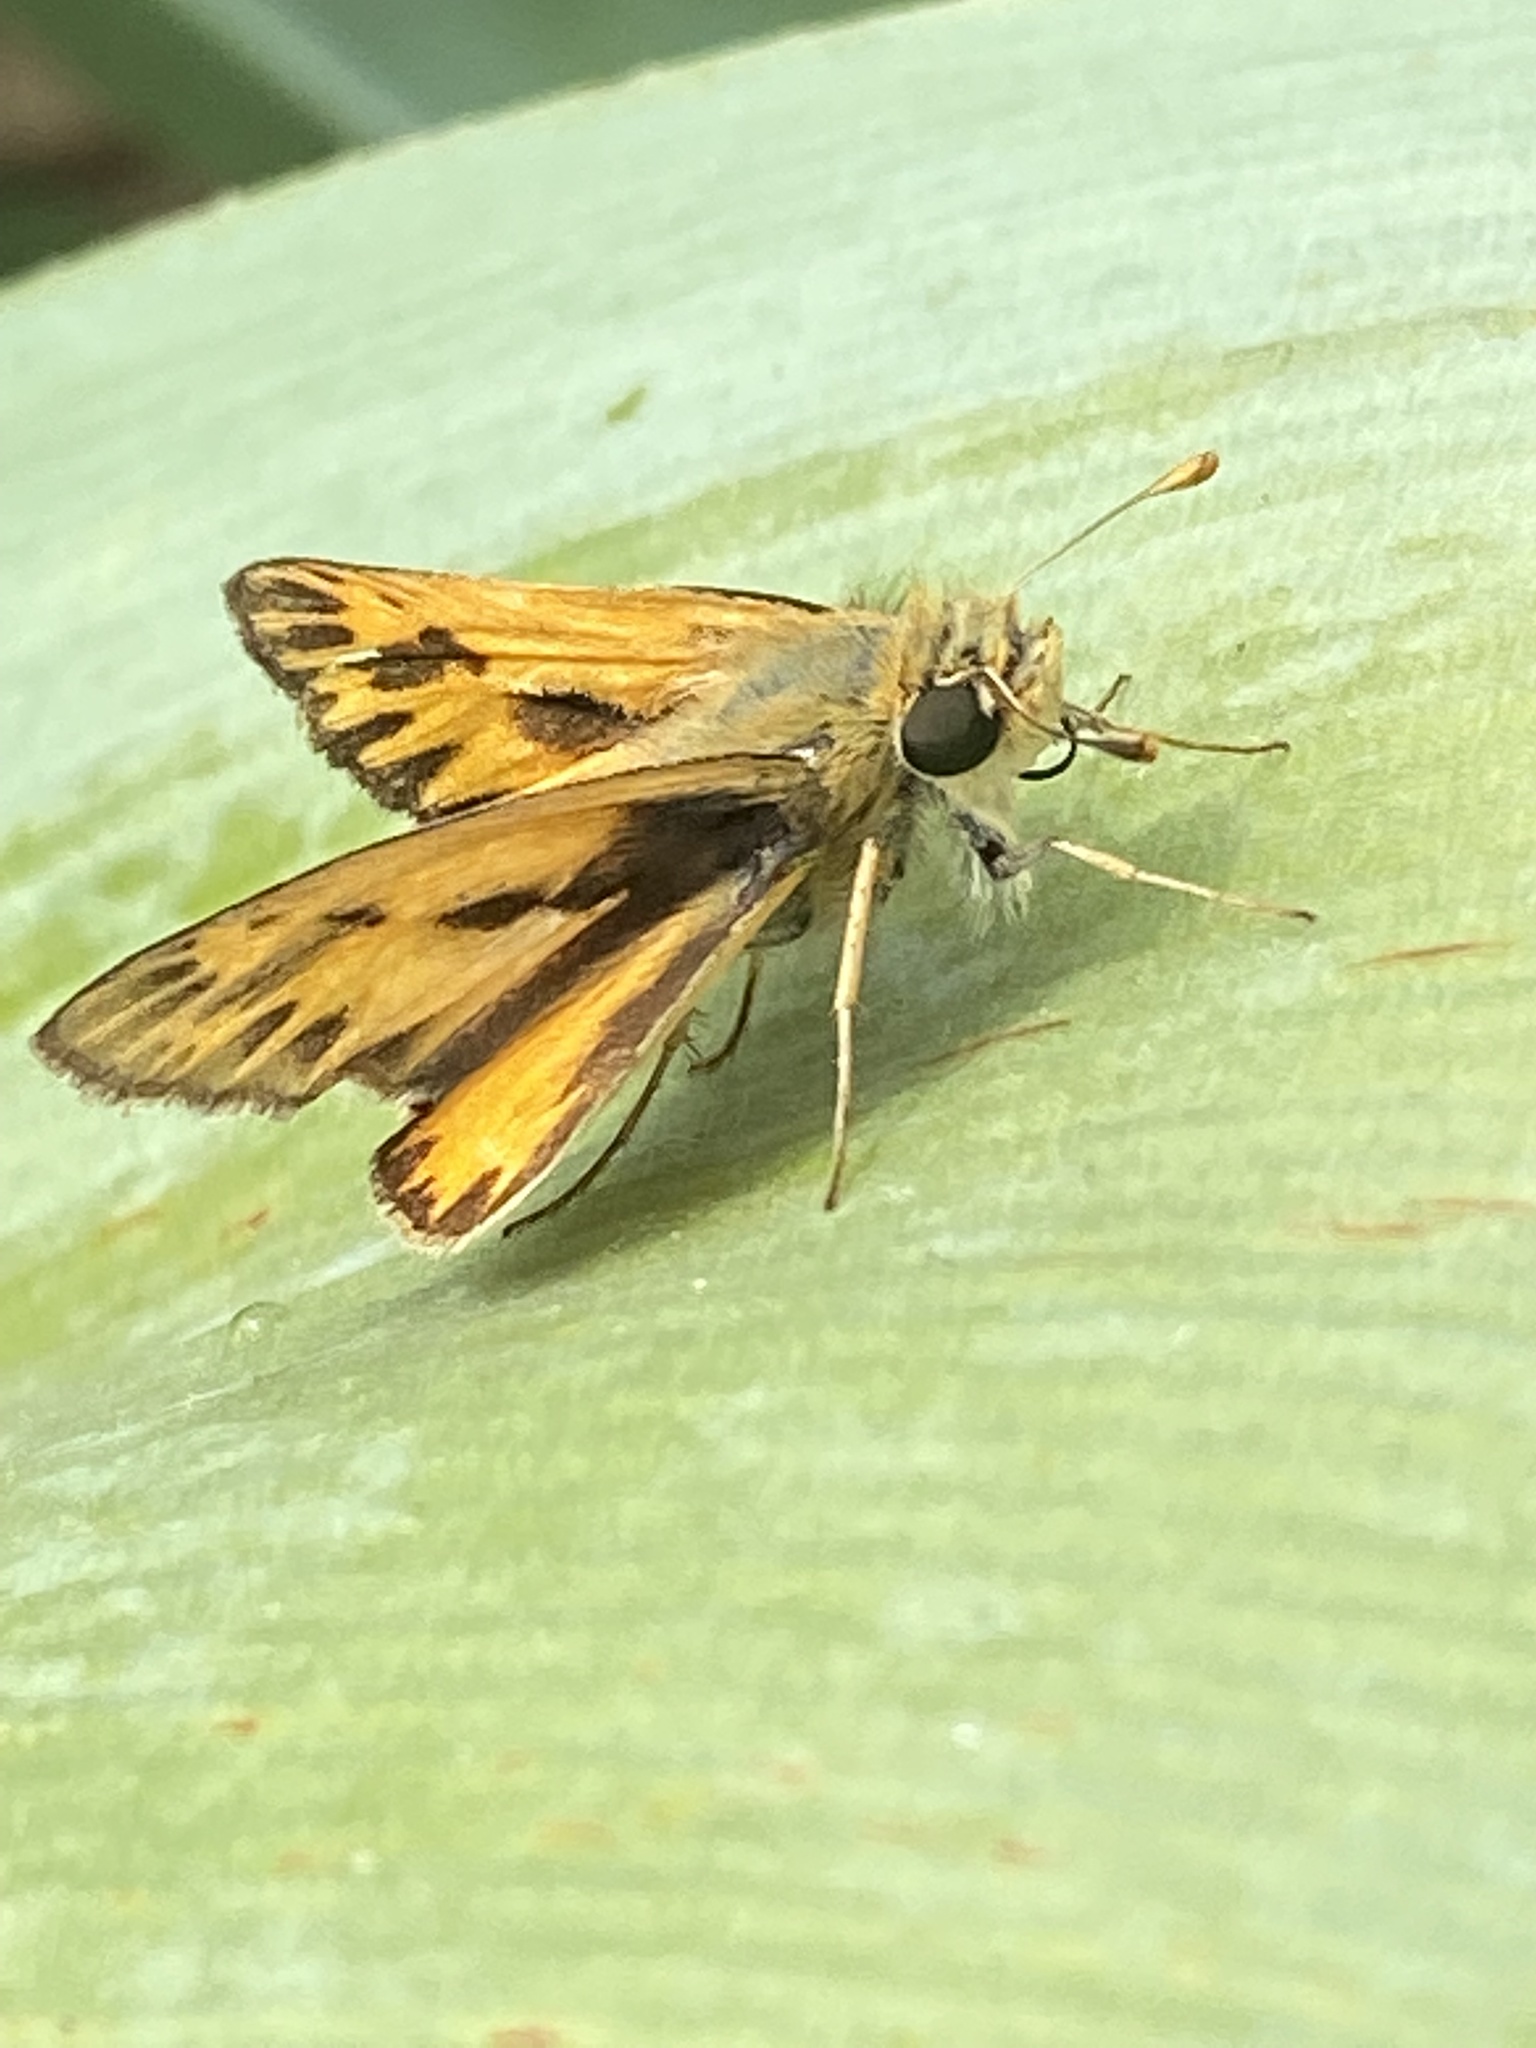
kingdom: Animalia
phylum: Arthropoda
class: Insecta
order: Lepidoptera
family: Hesperiidae
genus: Hylephila
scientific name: Hylephila phyleus
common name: Fiery skipper
